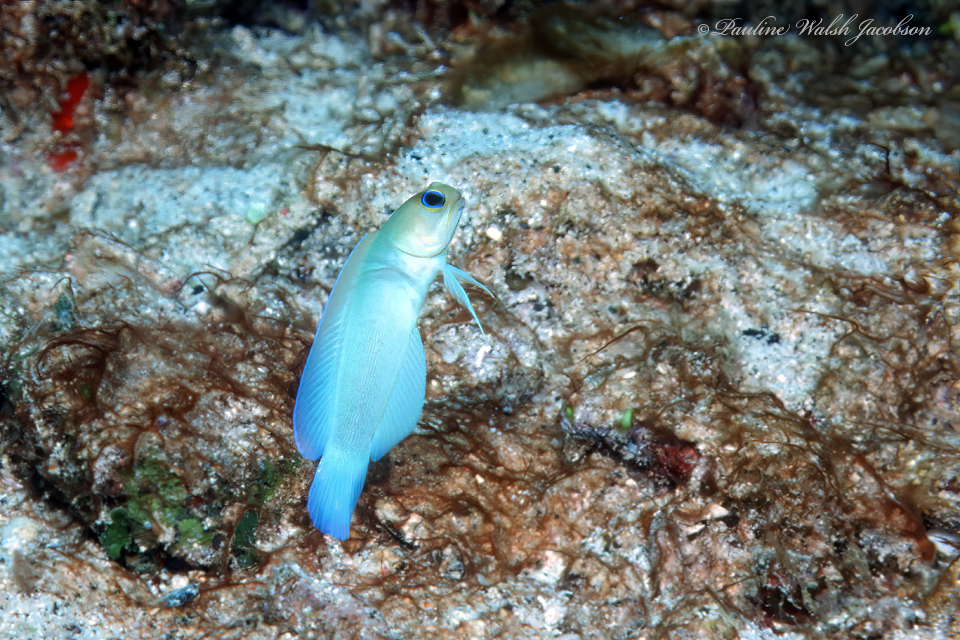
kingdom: Animalia
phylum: Chordata
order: Perciformes
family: Opistognathidae
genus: Opistognathus
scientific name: Opistognathus aurifrons
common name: Yellowhead jawfish
